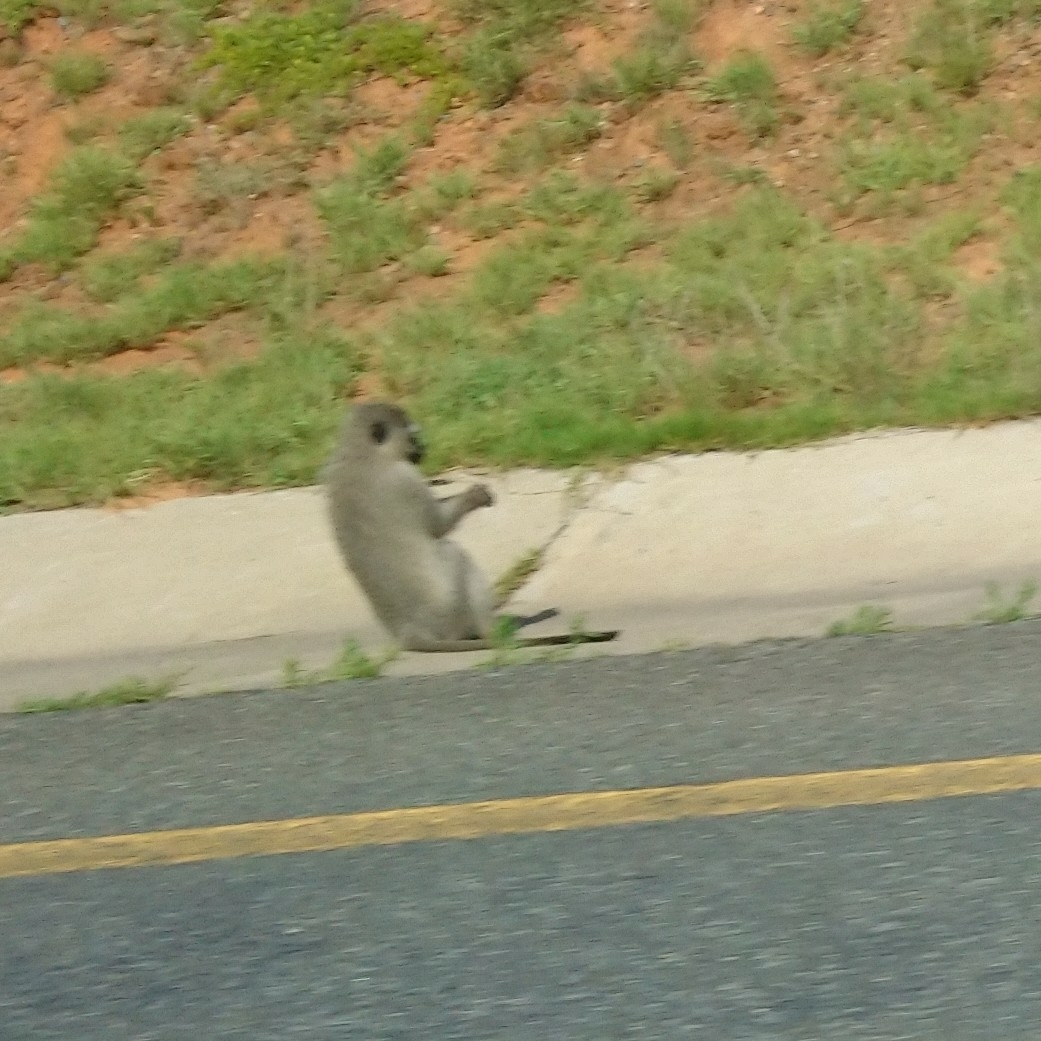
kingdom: Animalia
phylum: Chordata
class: Mammalia
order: Primates
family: Cercopithecidae
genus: Chlorocebus
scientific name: Chlorocebus pygerythrus
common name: Vervet monkey
